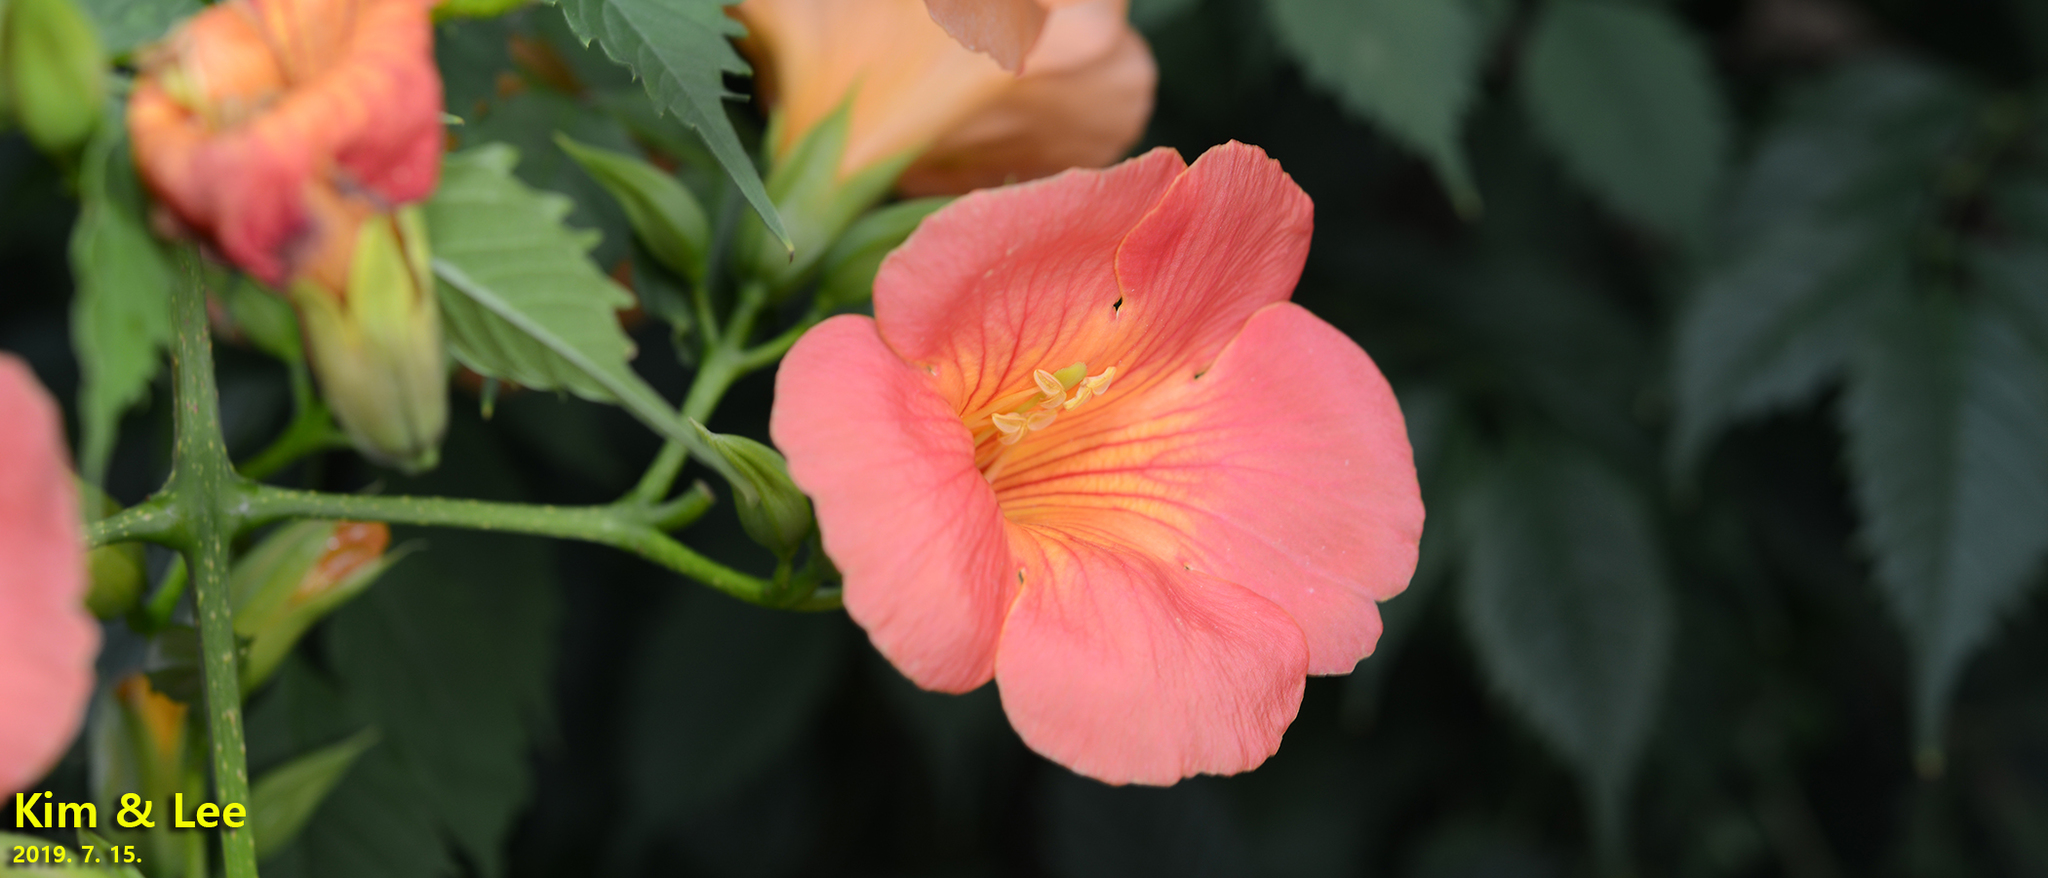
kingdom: Plantae
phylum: Tracheophyta
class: Magnoliopsida
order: Lamiales
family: Bignoniaceae
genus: Campsis
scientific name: Campsis grandiflora
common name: Chinese trumpet-creeper
